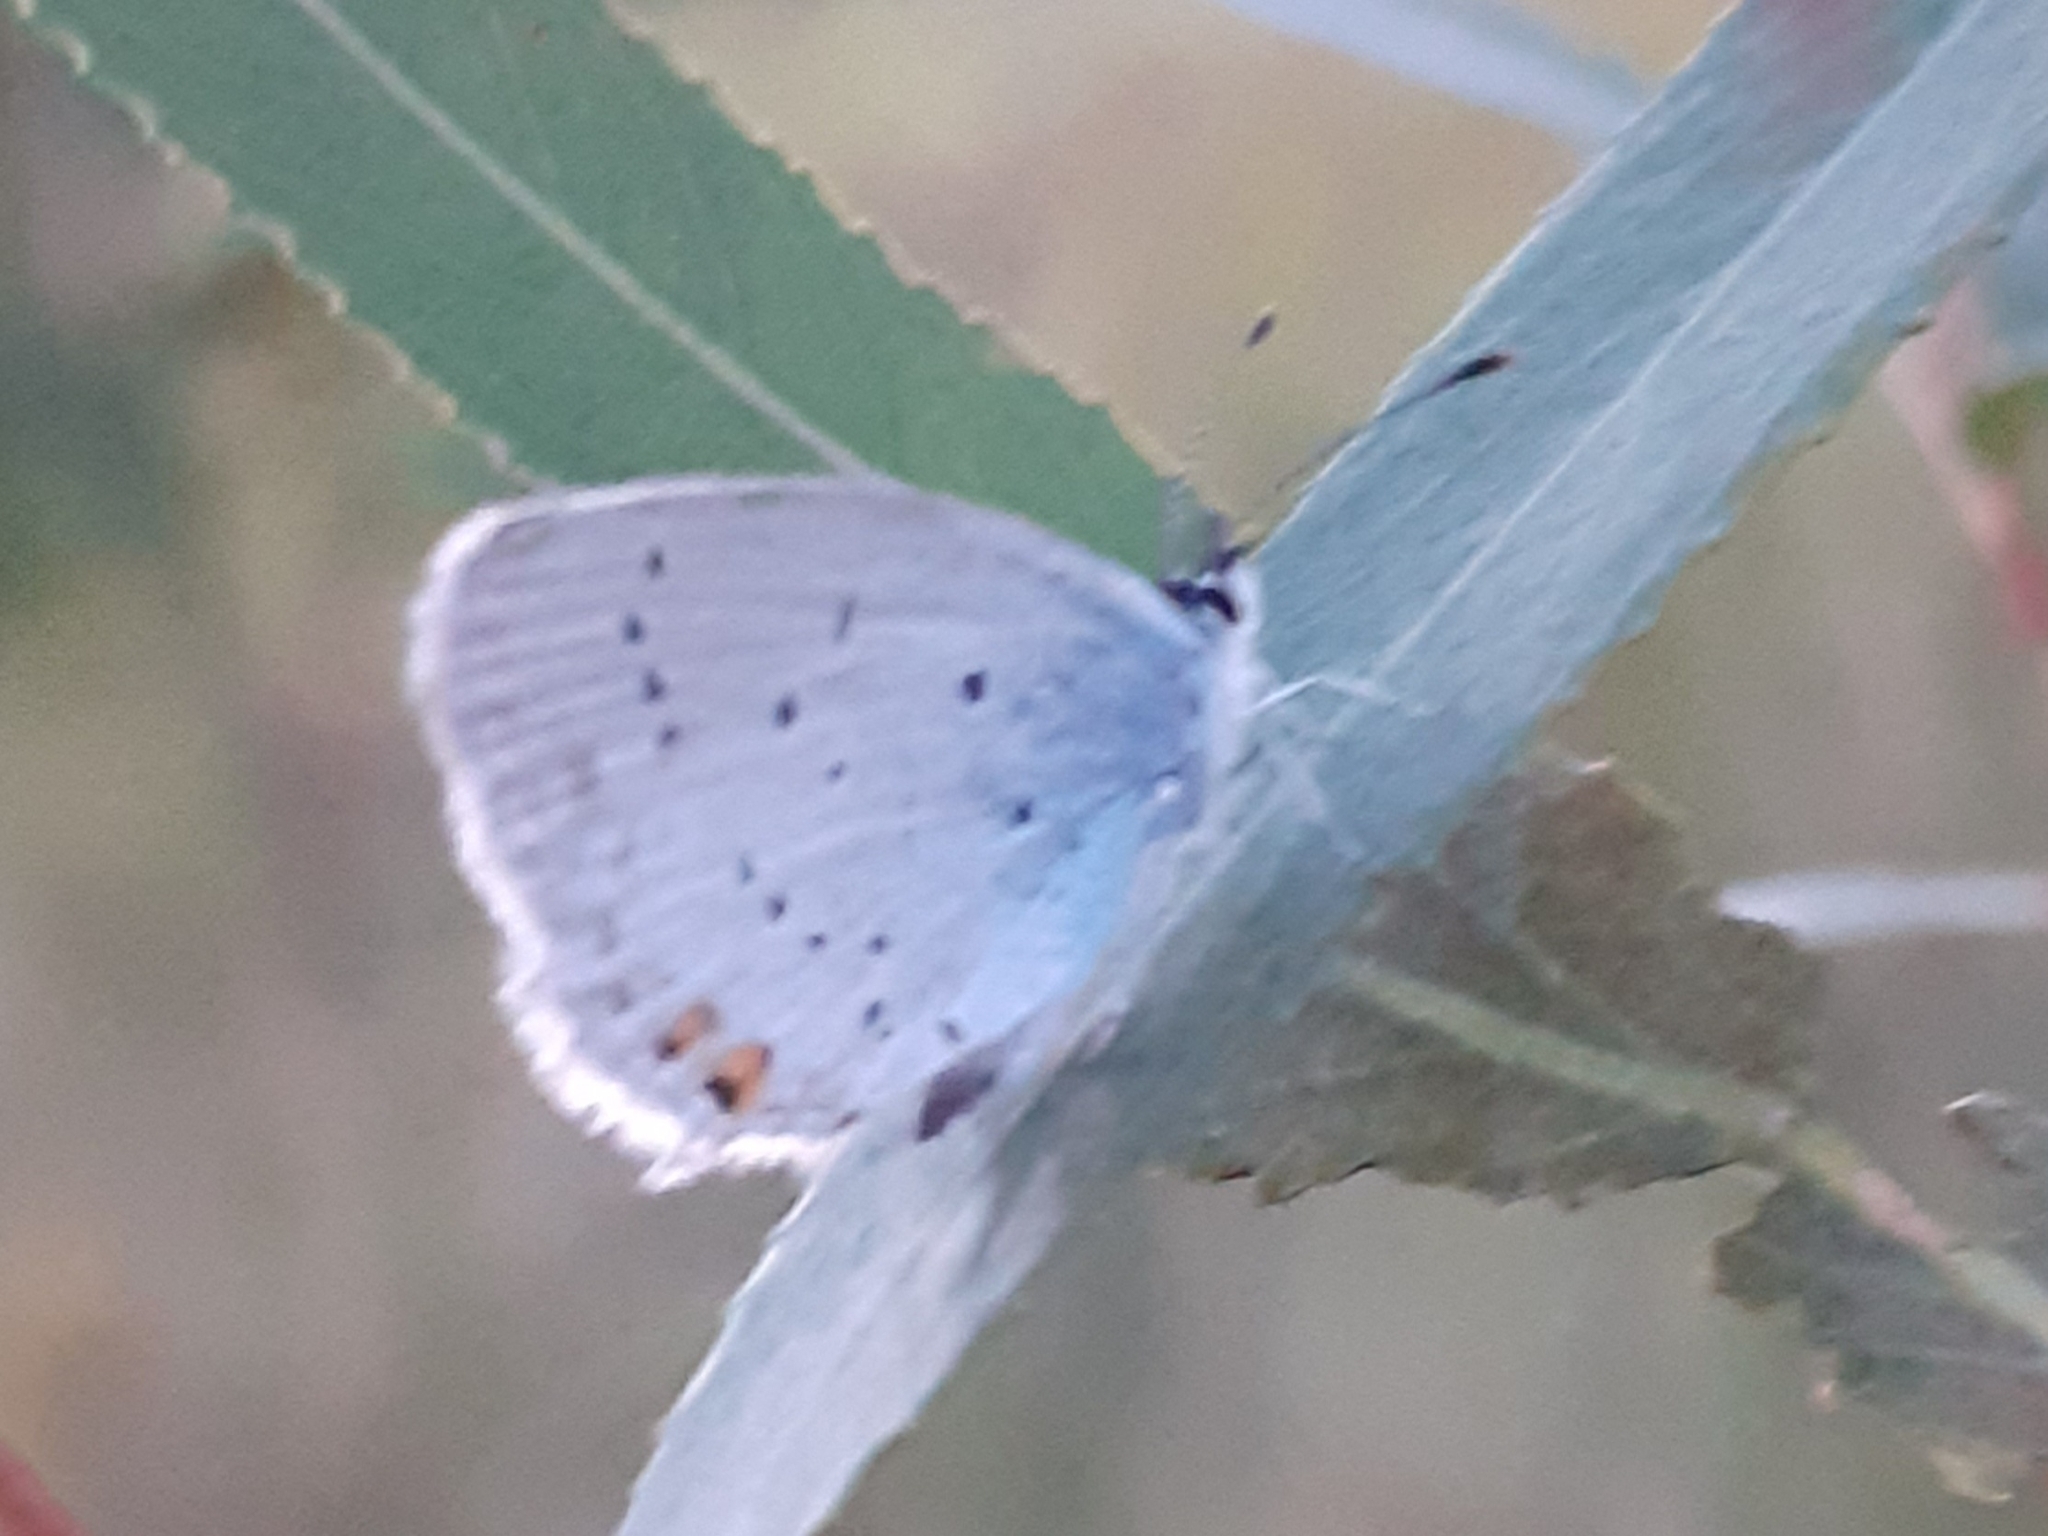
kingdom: Animalia
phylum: Arthropoda
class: Insecta
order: Lepidoptera
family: Lycaenidae
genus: Elkalyce
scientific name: Elkalyce argiades
